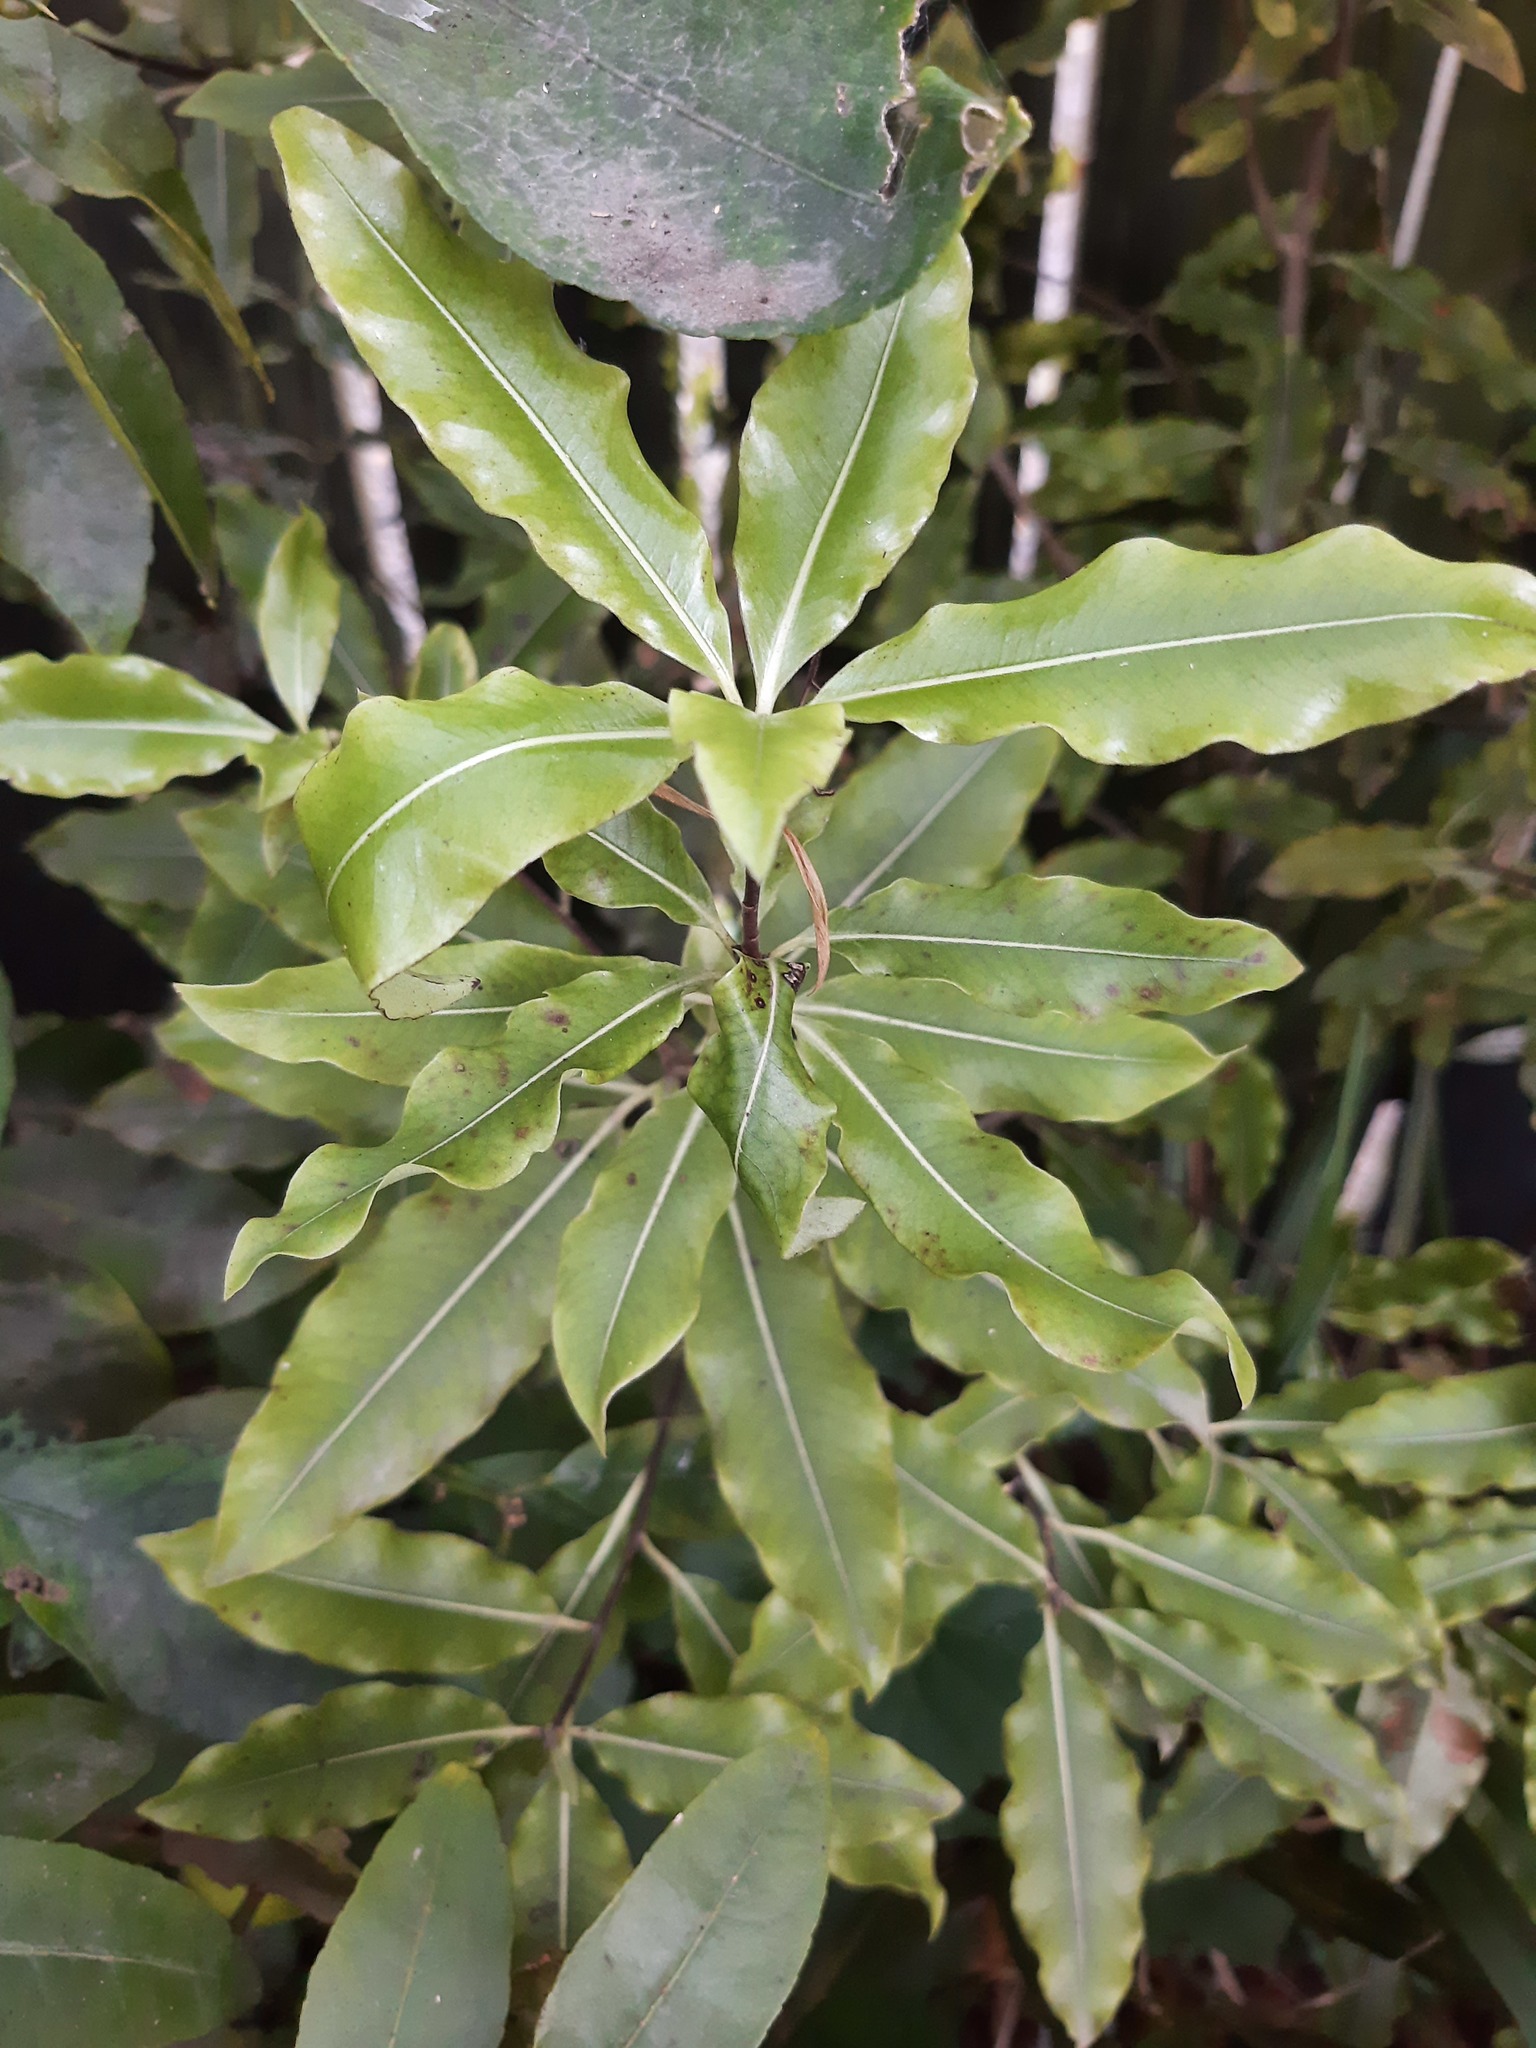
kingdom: Plantae
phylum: Tracheophyta
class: Magnoliopsida
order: Apiales
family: Pittosporaceae
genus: Pittosporum
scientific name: Pittosporum eugenioides
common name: Lemonwood
